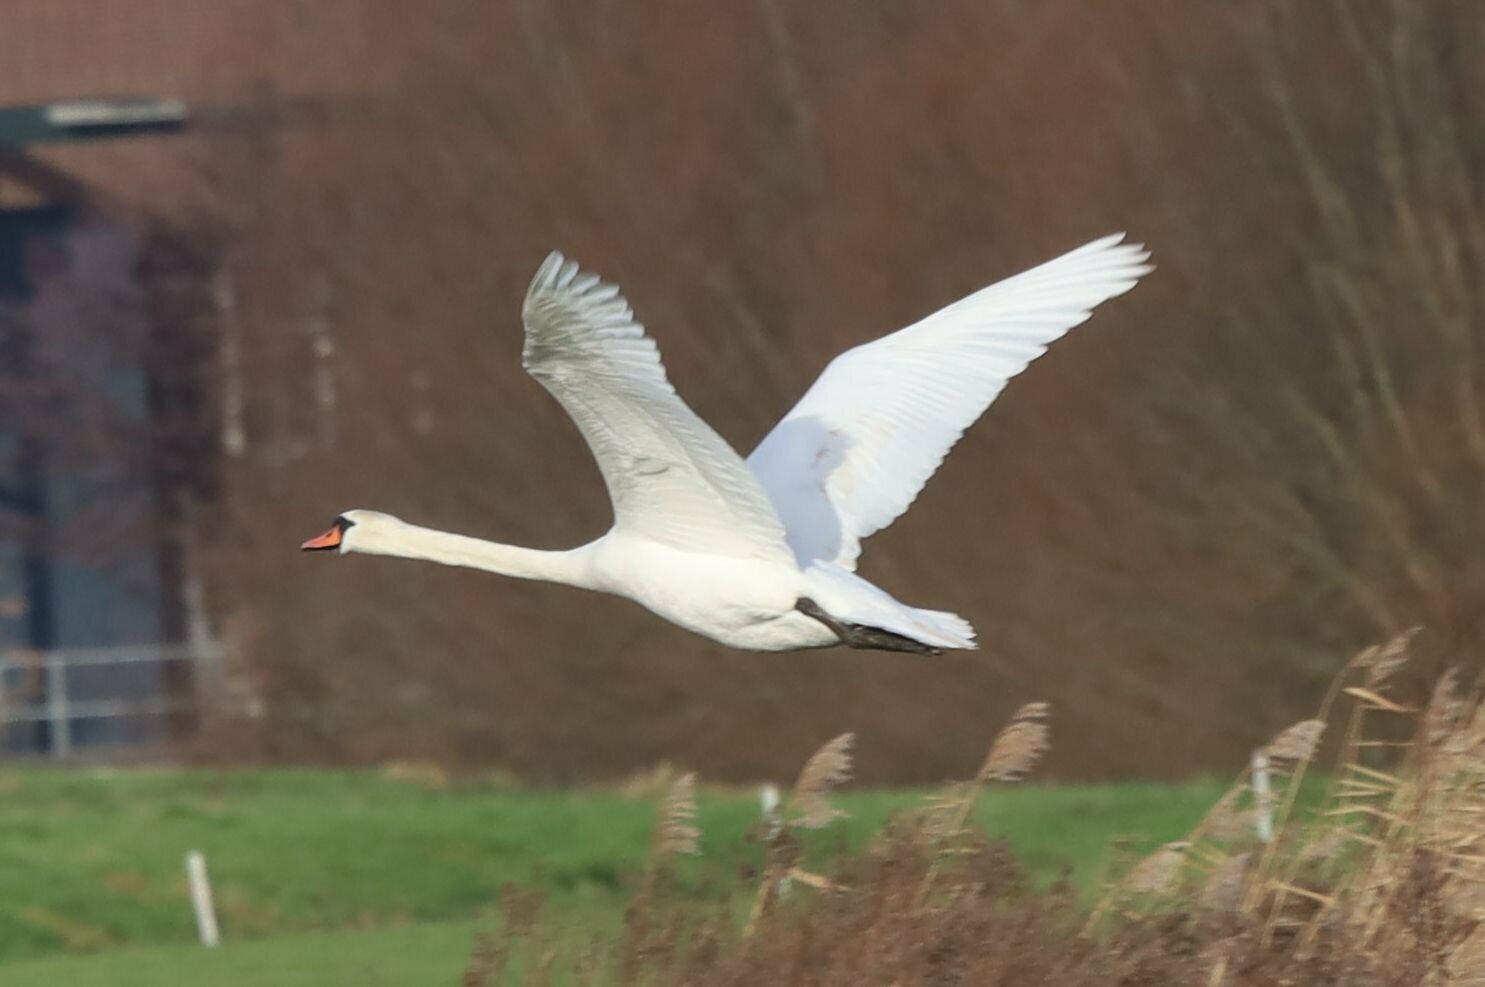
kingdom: Animalia
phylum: Chordata
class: Aves
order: Anseriformes
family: Anatidae
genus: Cygnus
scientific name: Cygnus olor
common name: Mute swan
